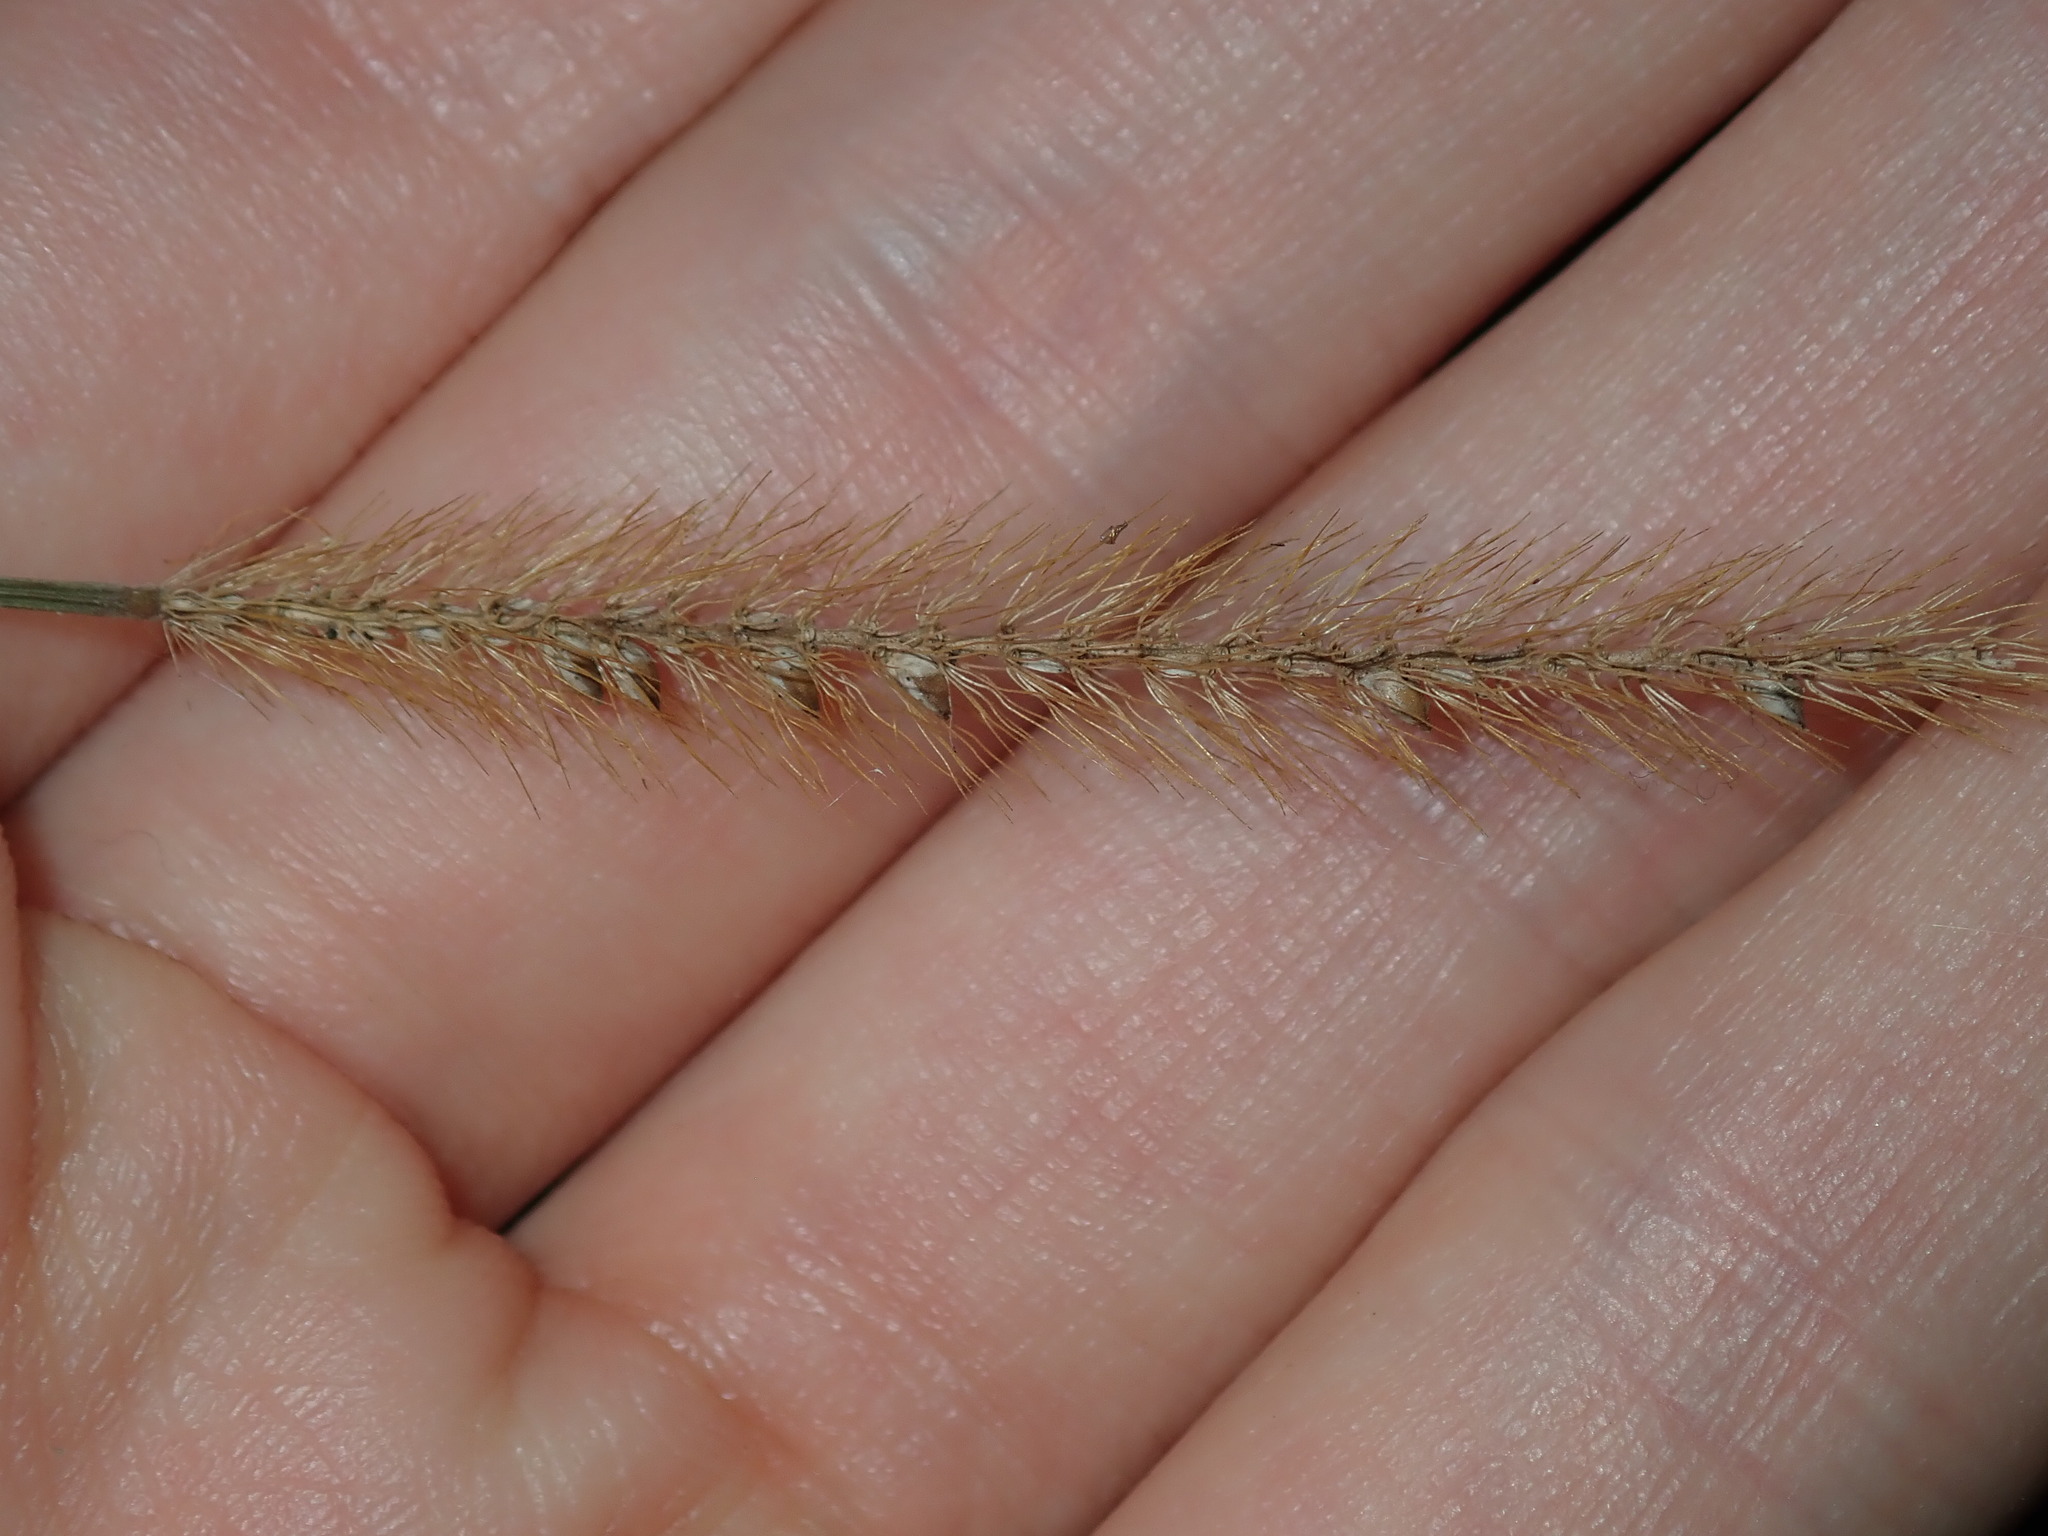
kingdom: Plantae
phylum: Tracheophyta
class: Liliopsida
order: Poales
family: Poaceae
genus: Setaria
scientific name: Setaria pumila
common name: Yellow bristle-grass
